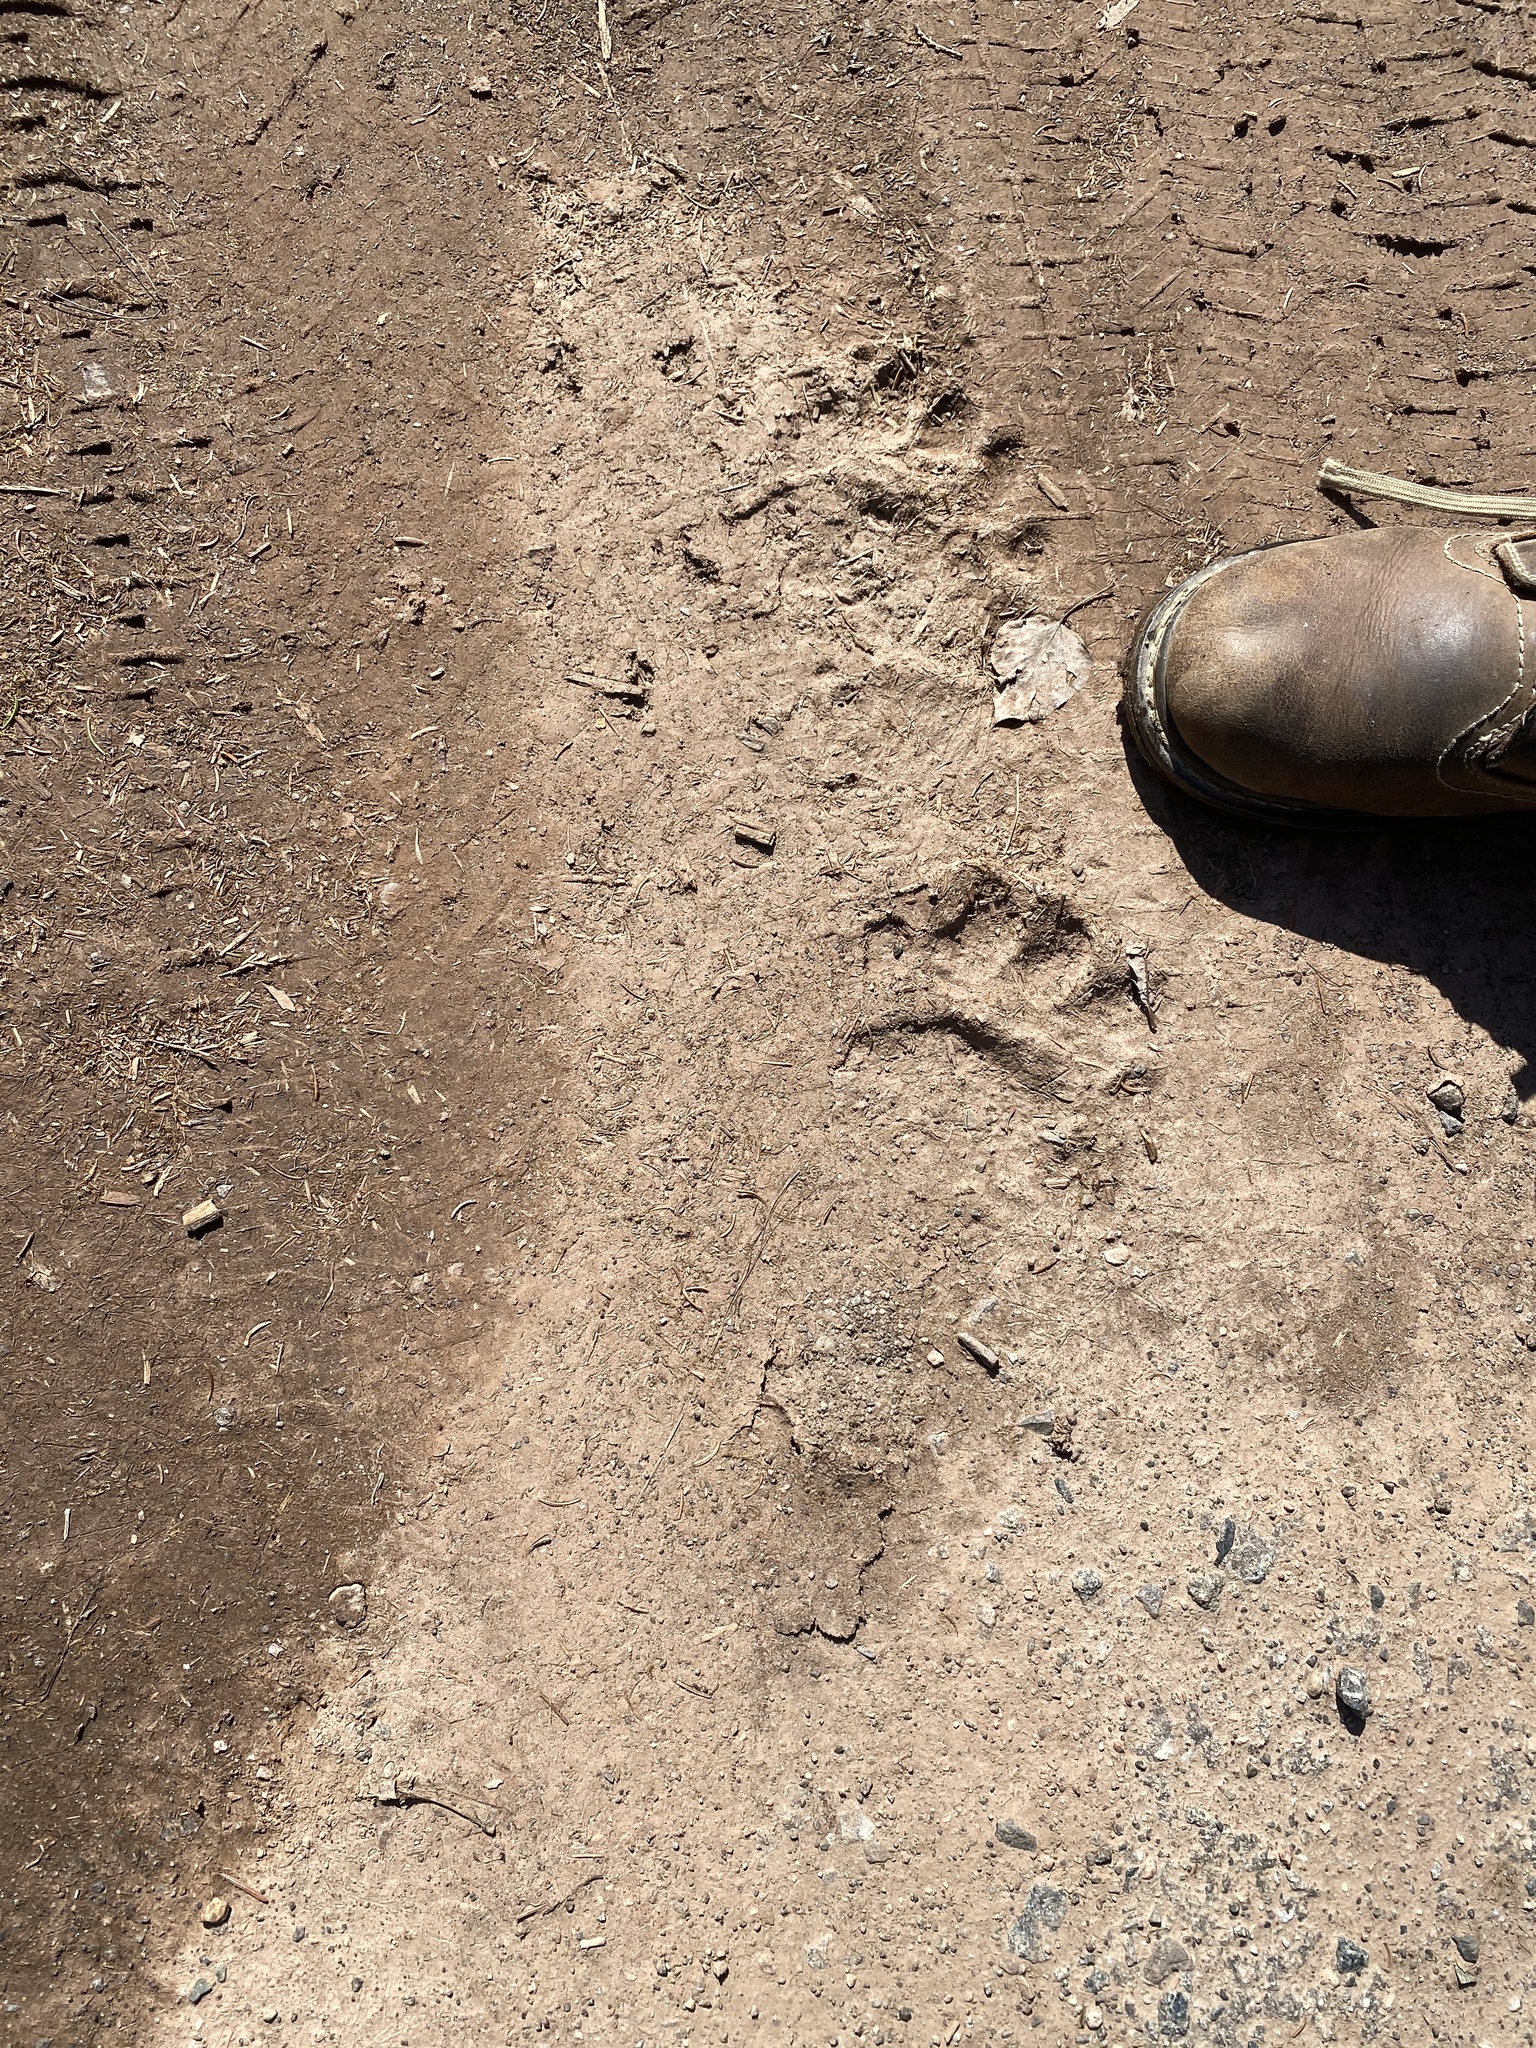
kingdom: Animalia
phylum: Chordata
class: Mammalia
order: Carnivora
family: Ursidae
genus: Ursus
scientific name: Ursus americanus
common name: American black bear
